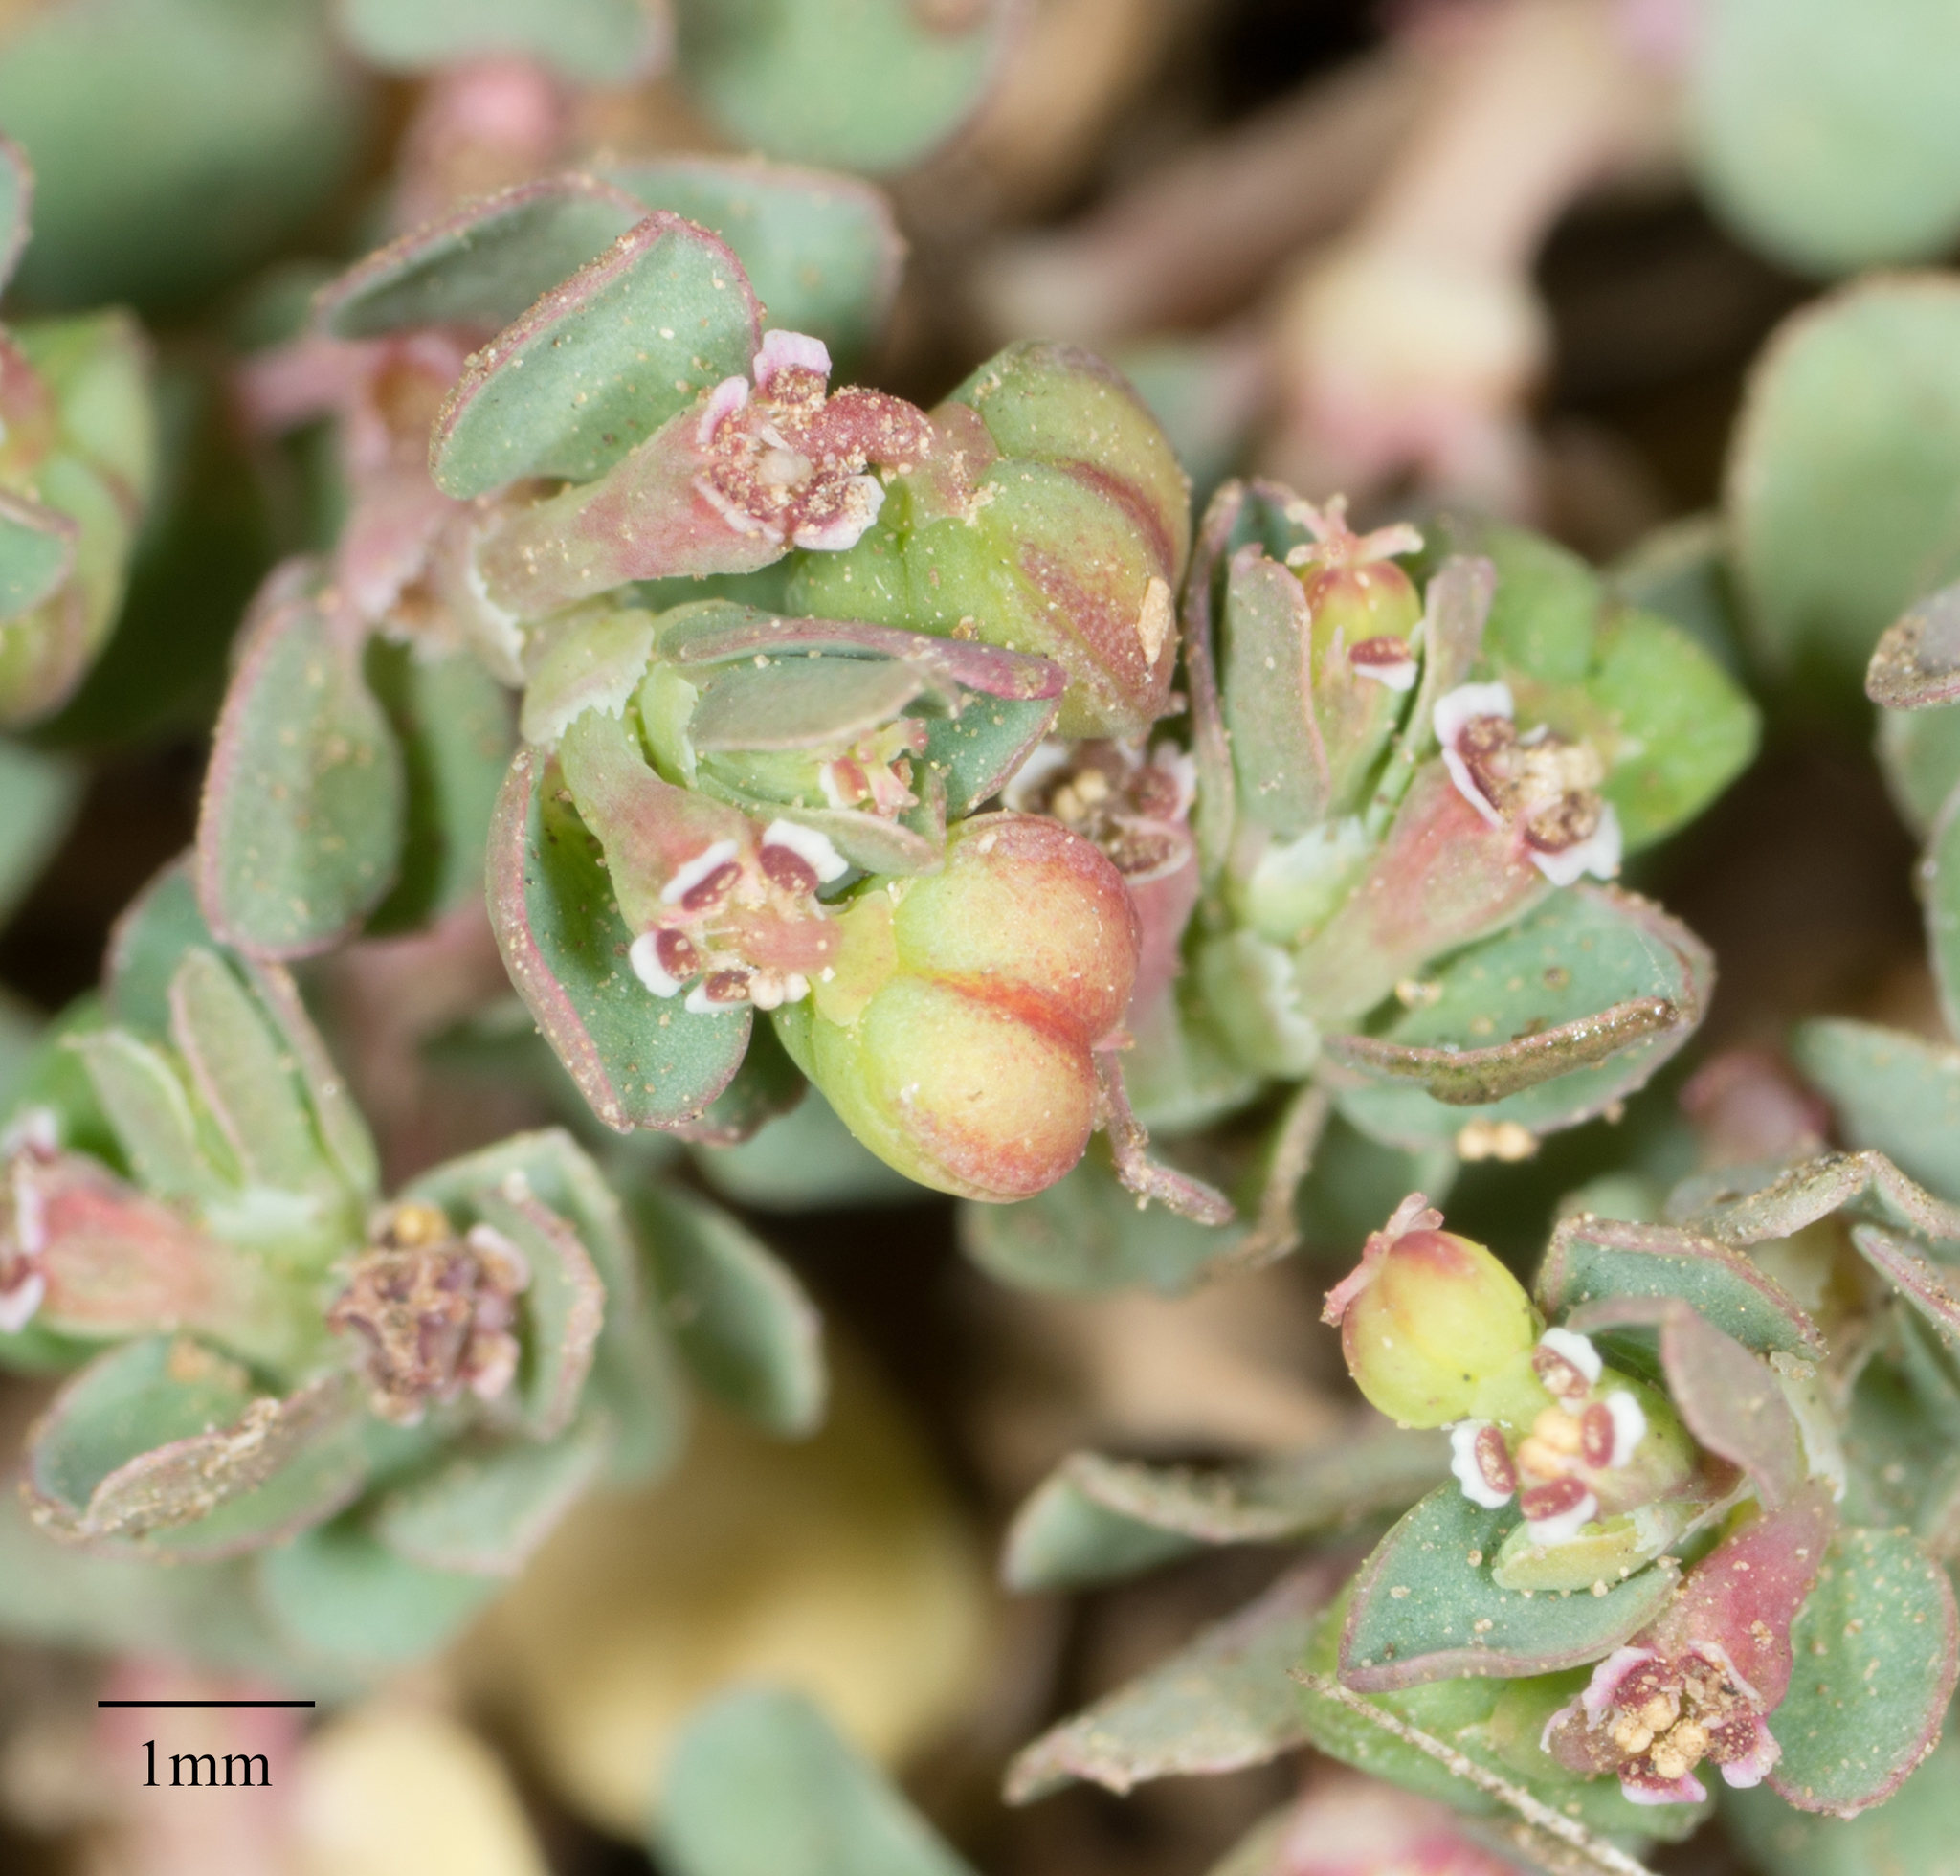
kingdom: Plantae
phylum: Tracheophyta
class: Magnoliopsida
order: Malpighiales
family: Euphorbiaceae
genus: Euphorbia
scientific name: Euphorbia serpens
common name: Matted sandmat
